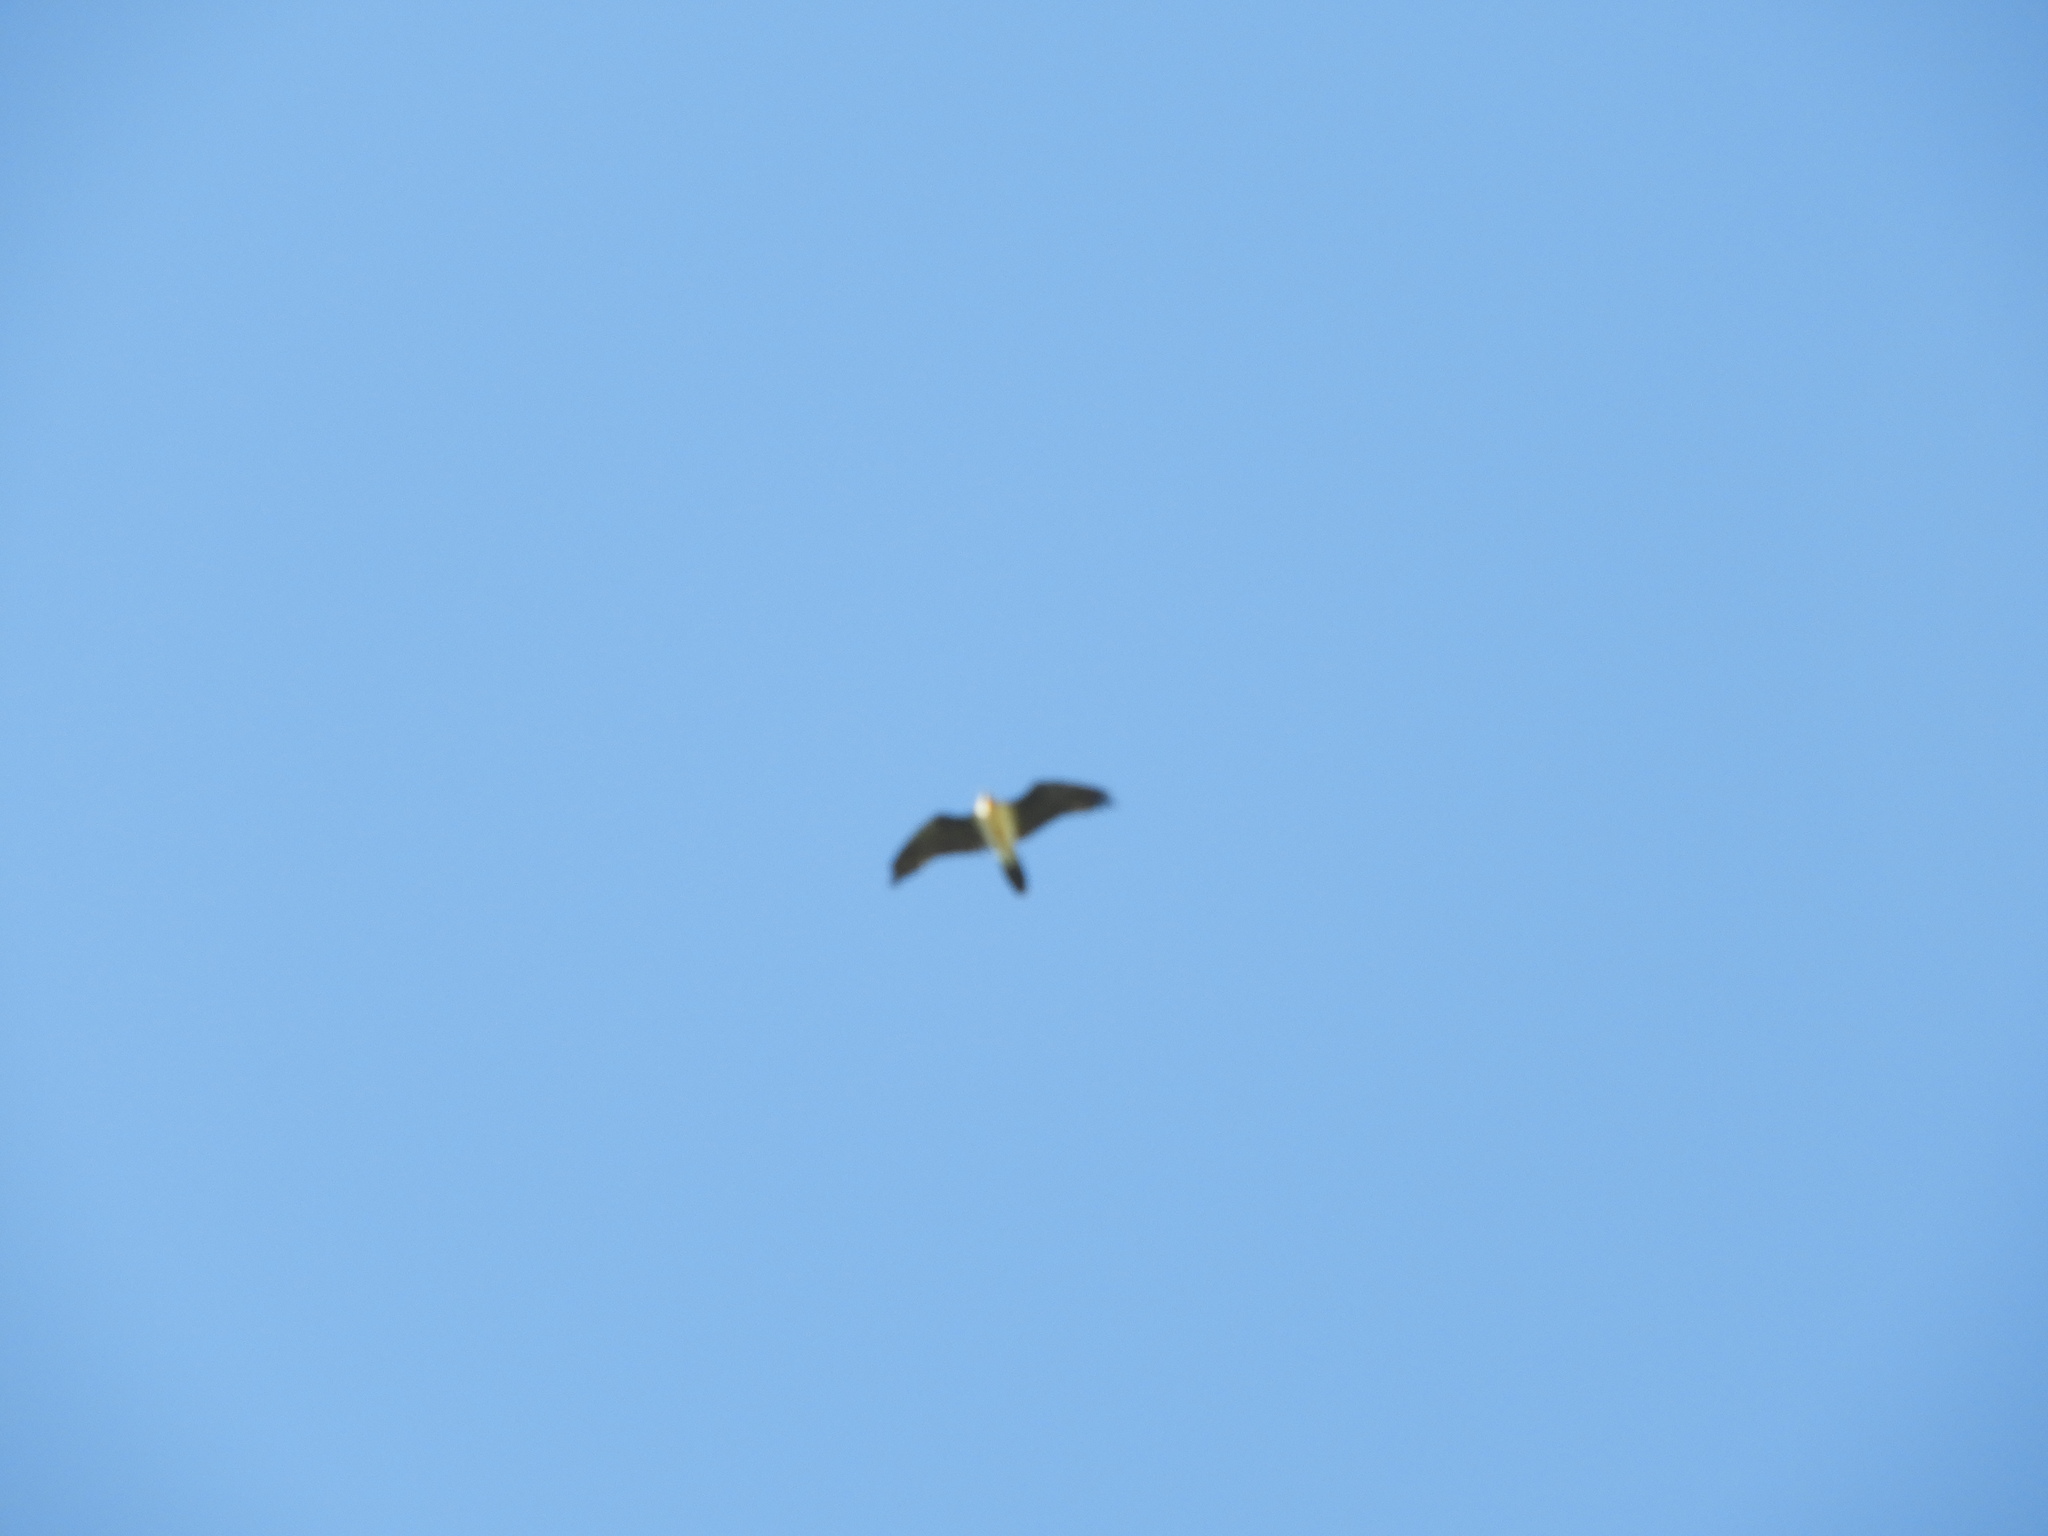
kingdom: Animalia
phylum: Chordata
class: Aves
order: Accipitriformes
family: Accipitridae
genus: Gypaetus
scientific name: Gypaetus barbatus
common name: Bearded vulture
